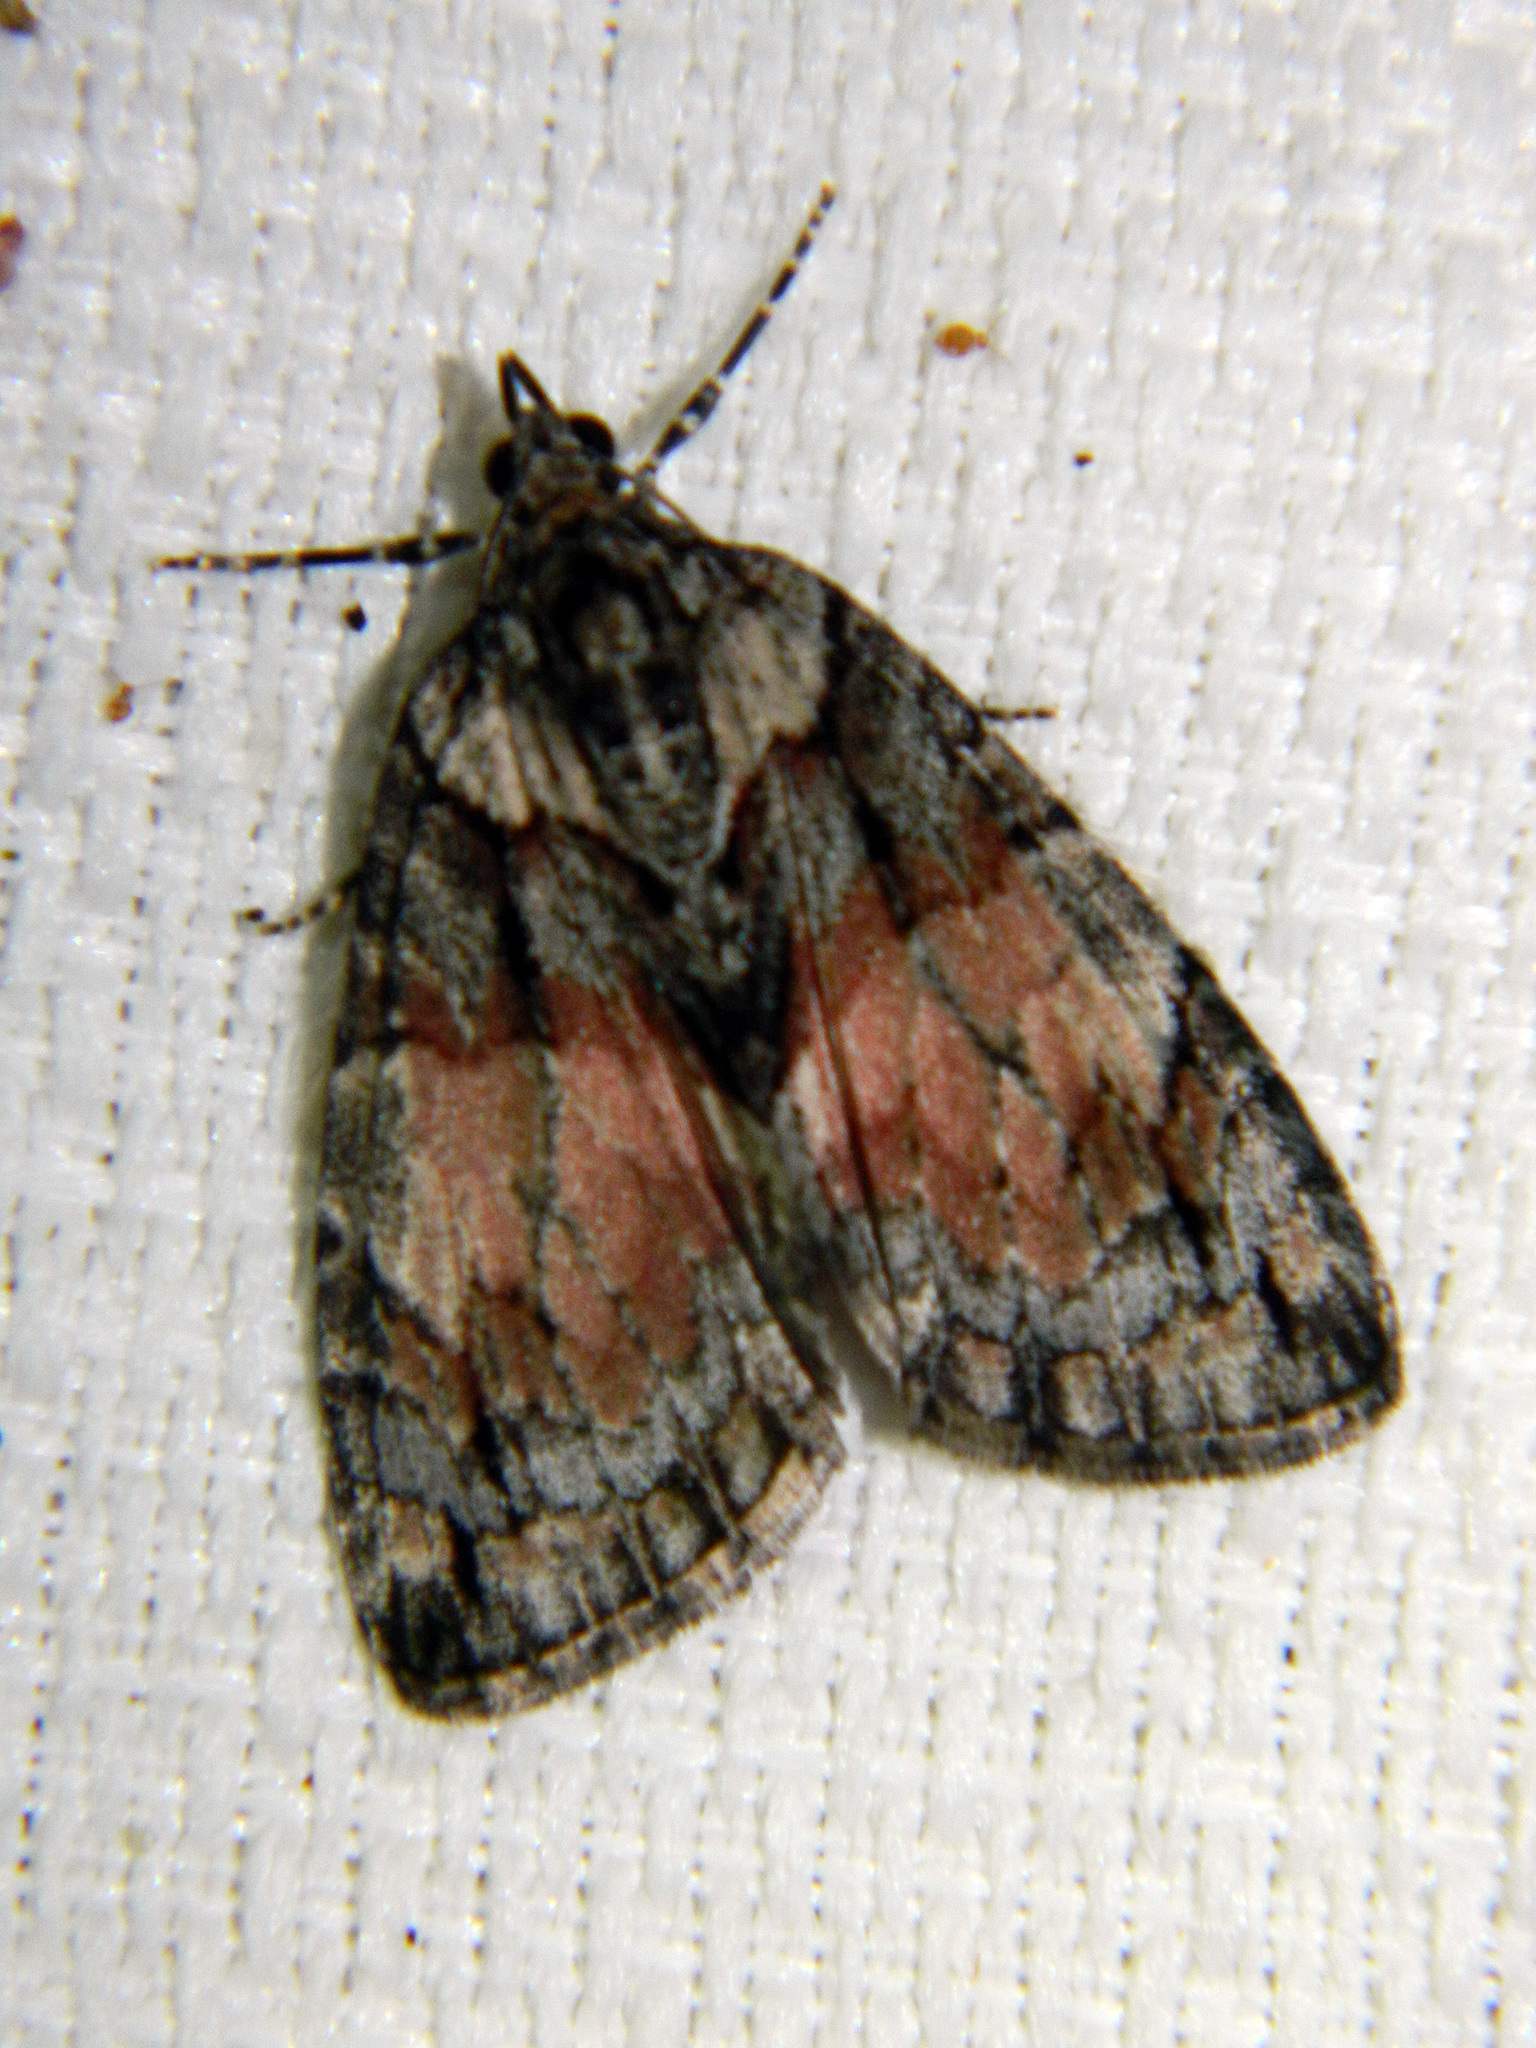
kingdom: Animalia
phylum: Arthropoda
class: Insecta
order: Lepidoptera
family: Geometridae
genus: Hydriomena
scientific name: Hydriomena perfracta
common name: Shattered hydriomena moth
